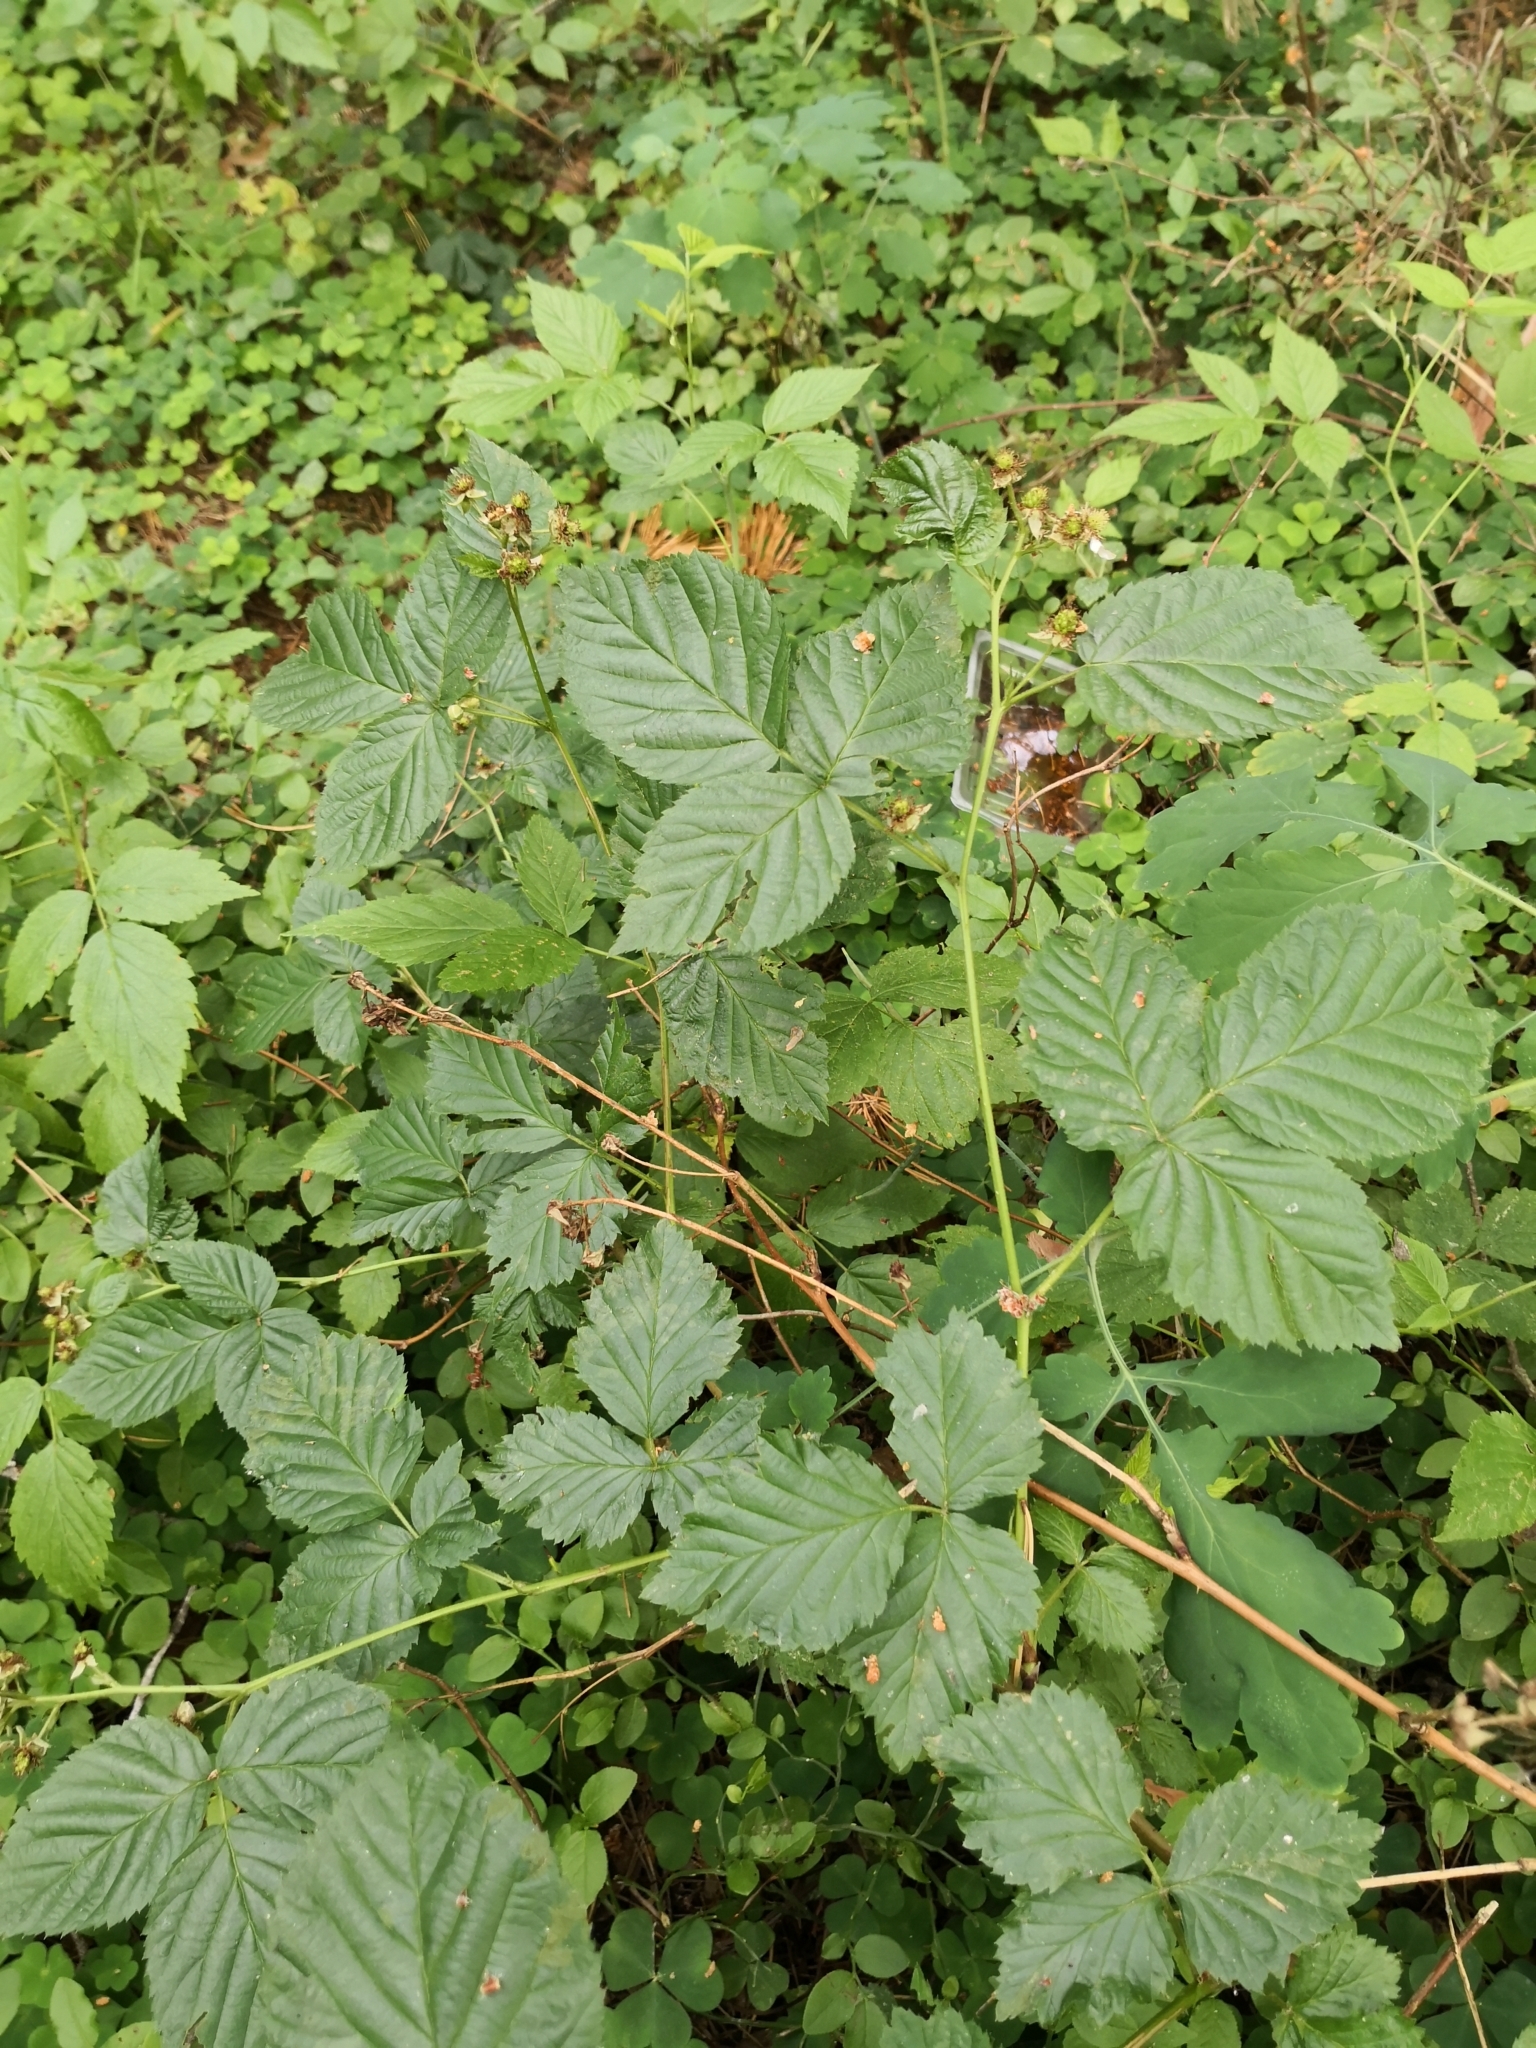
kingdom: Plantae
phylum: Tracheophyta
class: Magnoliopsida
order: Rosales
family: Rosaceae
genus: Rubus
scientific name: Rubus polonicus
